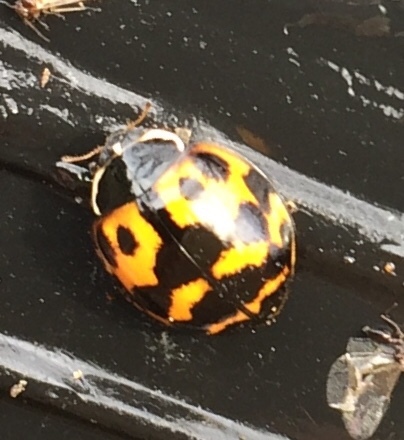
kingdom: Animalia
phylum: Arthropoda
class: Insecta
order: Coleoptera
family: Coccinellidae
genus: Harmonia
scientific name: Harmonia axyridis
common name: Harlequin ladybird
